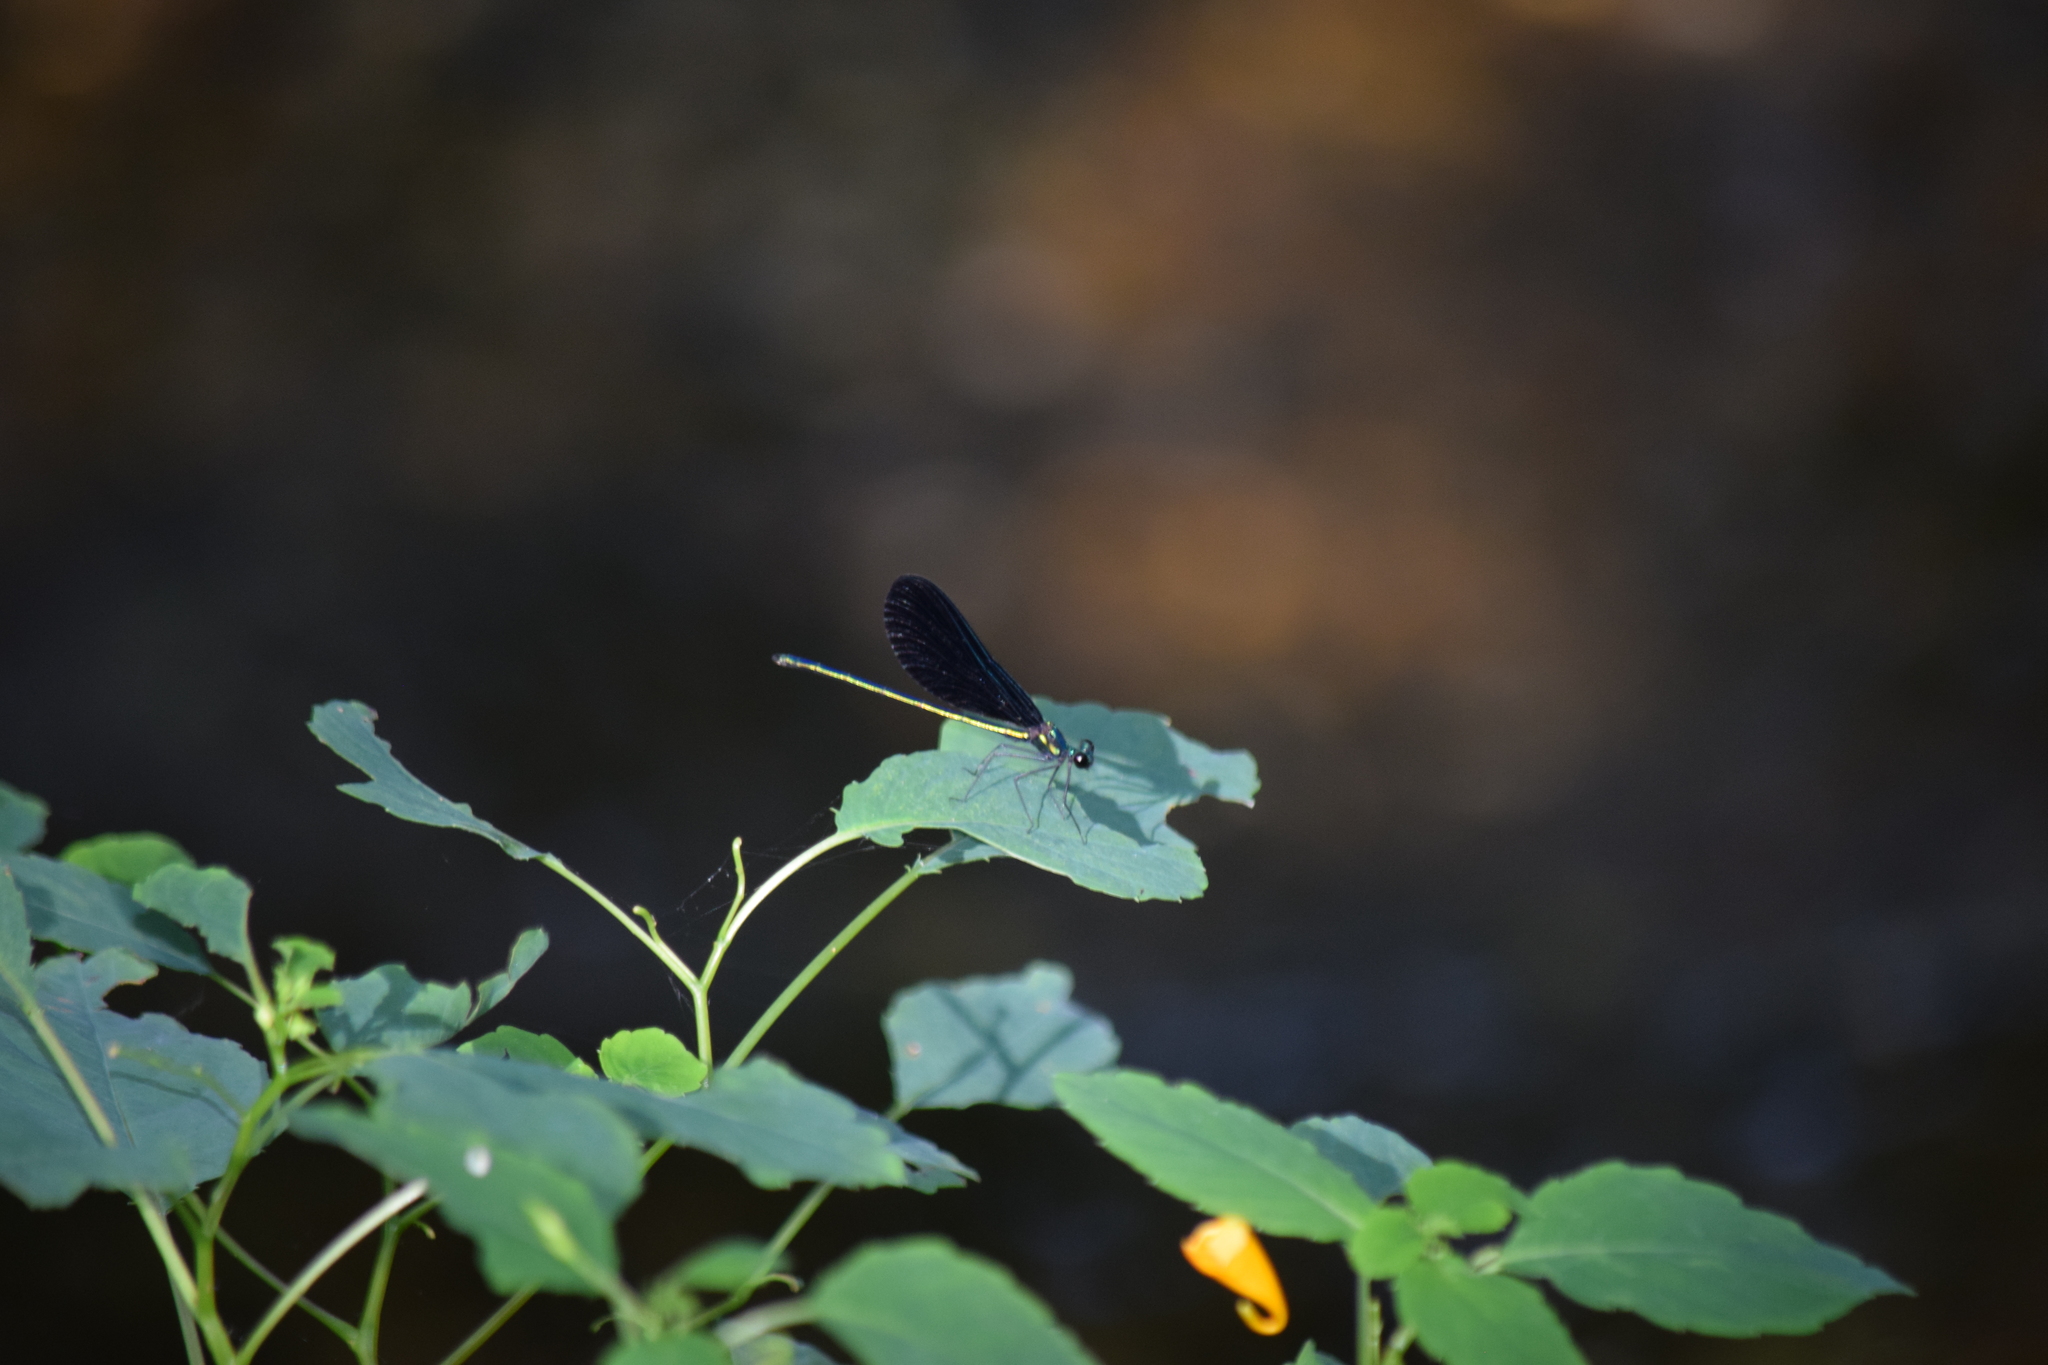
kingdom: Animalia
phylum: Arthropoda
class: Insecta
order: Odonata
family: Calopterygidae
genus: Calopteryx
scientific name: Calopteryx maculata
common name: Ebony jewelwing
